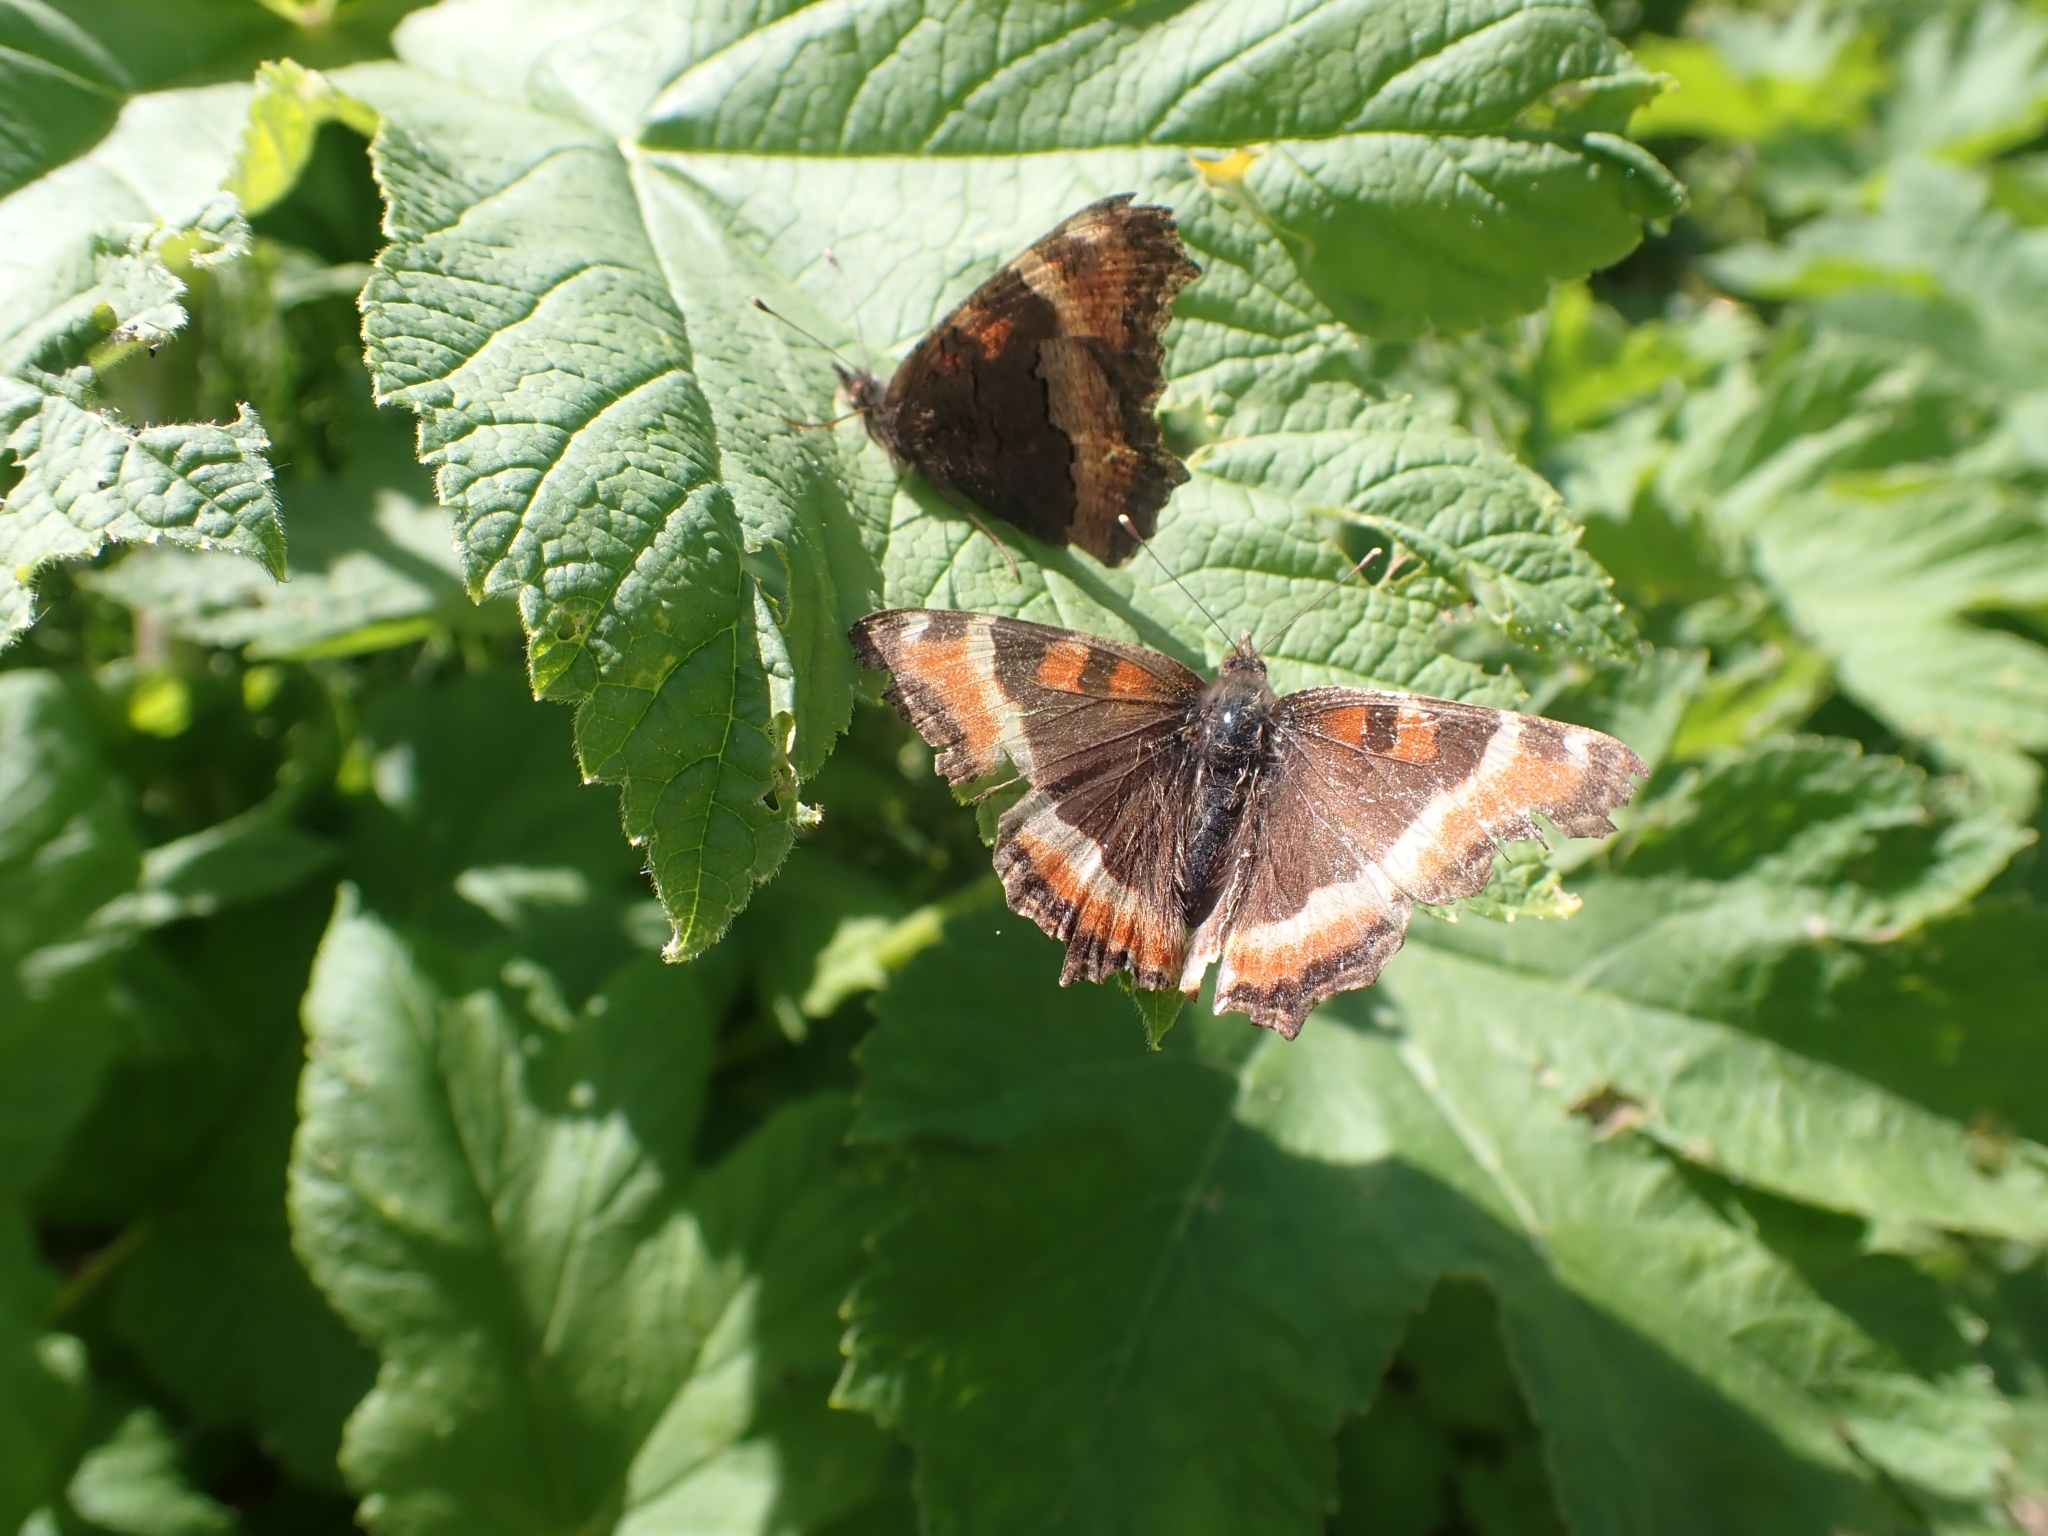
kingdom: Animalia
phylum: Arthropoda
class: Insecta
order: Lepidoptera
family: Nymphalidae
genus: Aglais
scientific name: Aglais milberti
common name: Milbert's tortoiseshell
